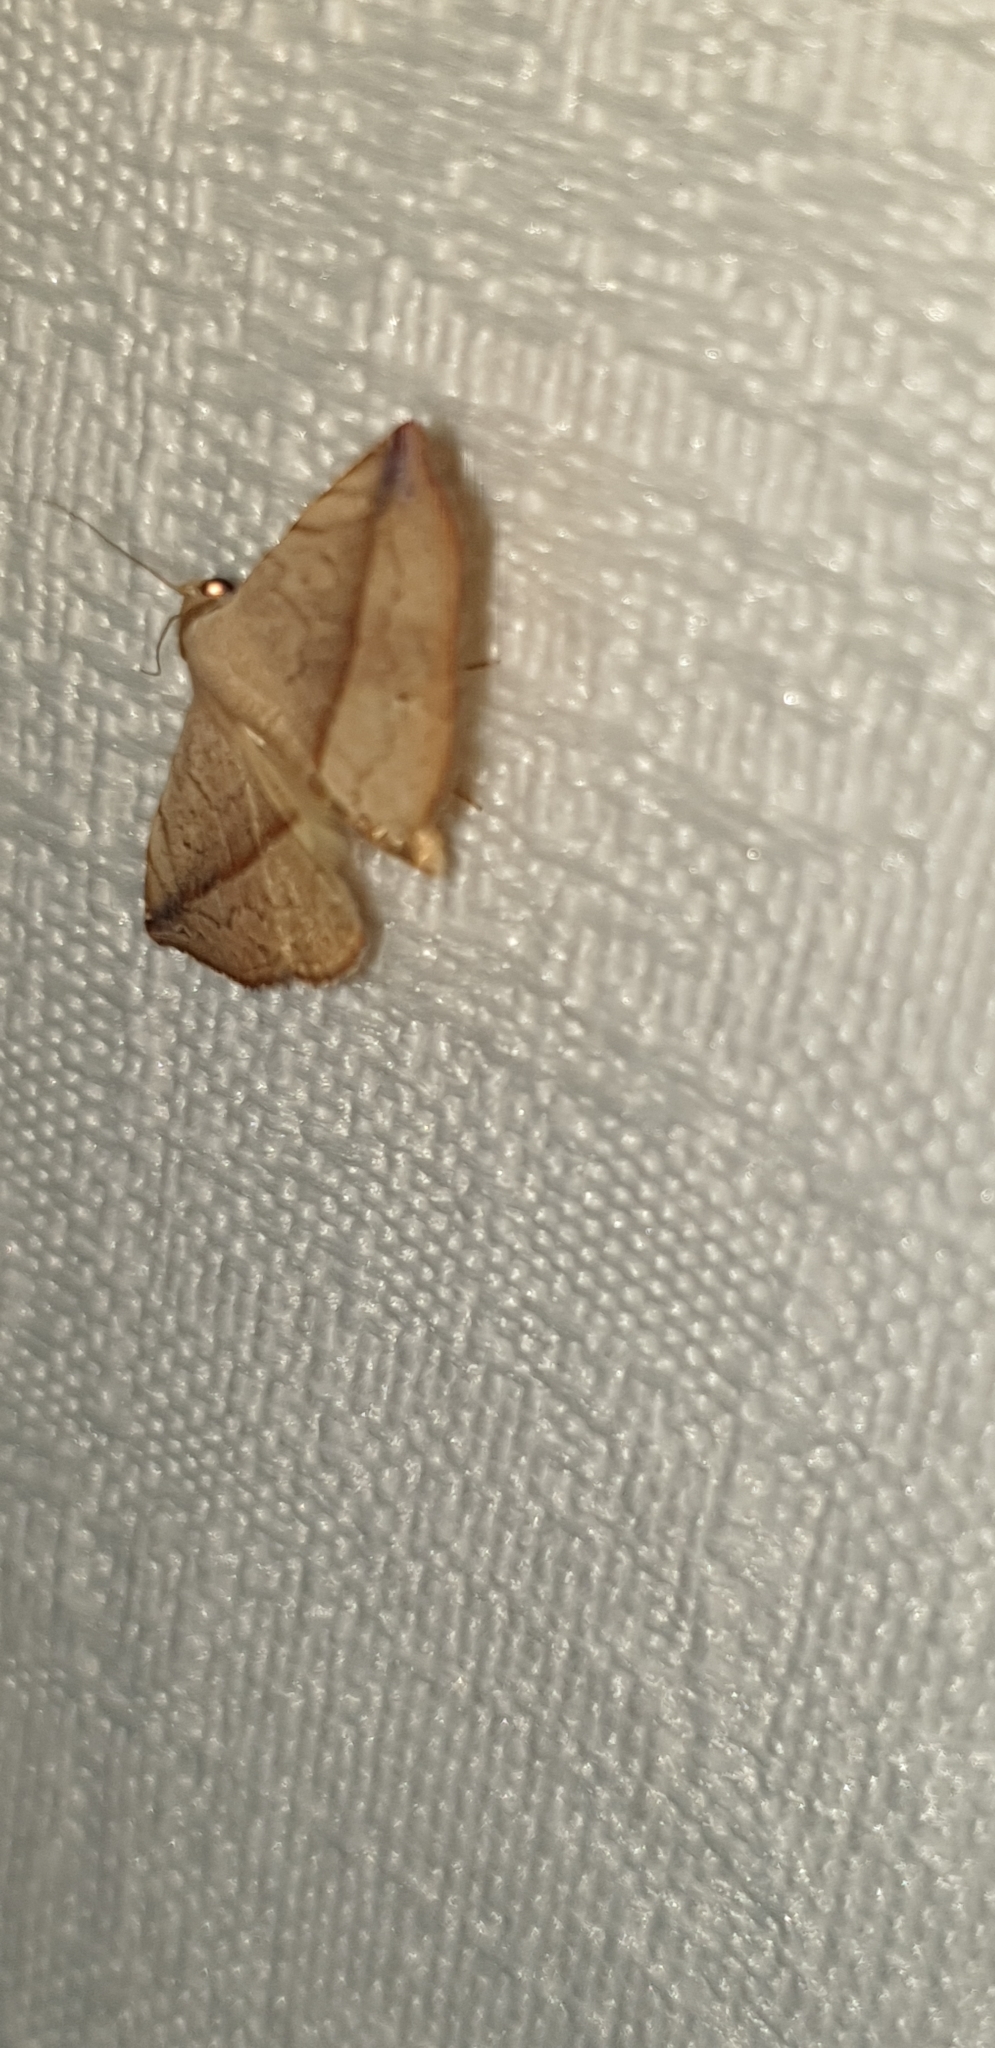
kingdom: Animalia
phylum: Arthropoda
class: Insecta
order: Lepidoptera
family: Noctuidae
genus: Eublemma
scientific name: Eublemma perversicolor
